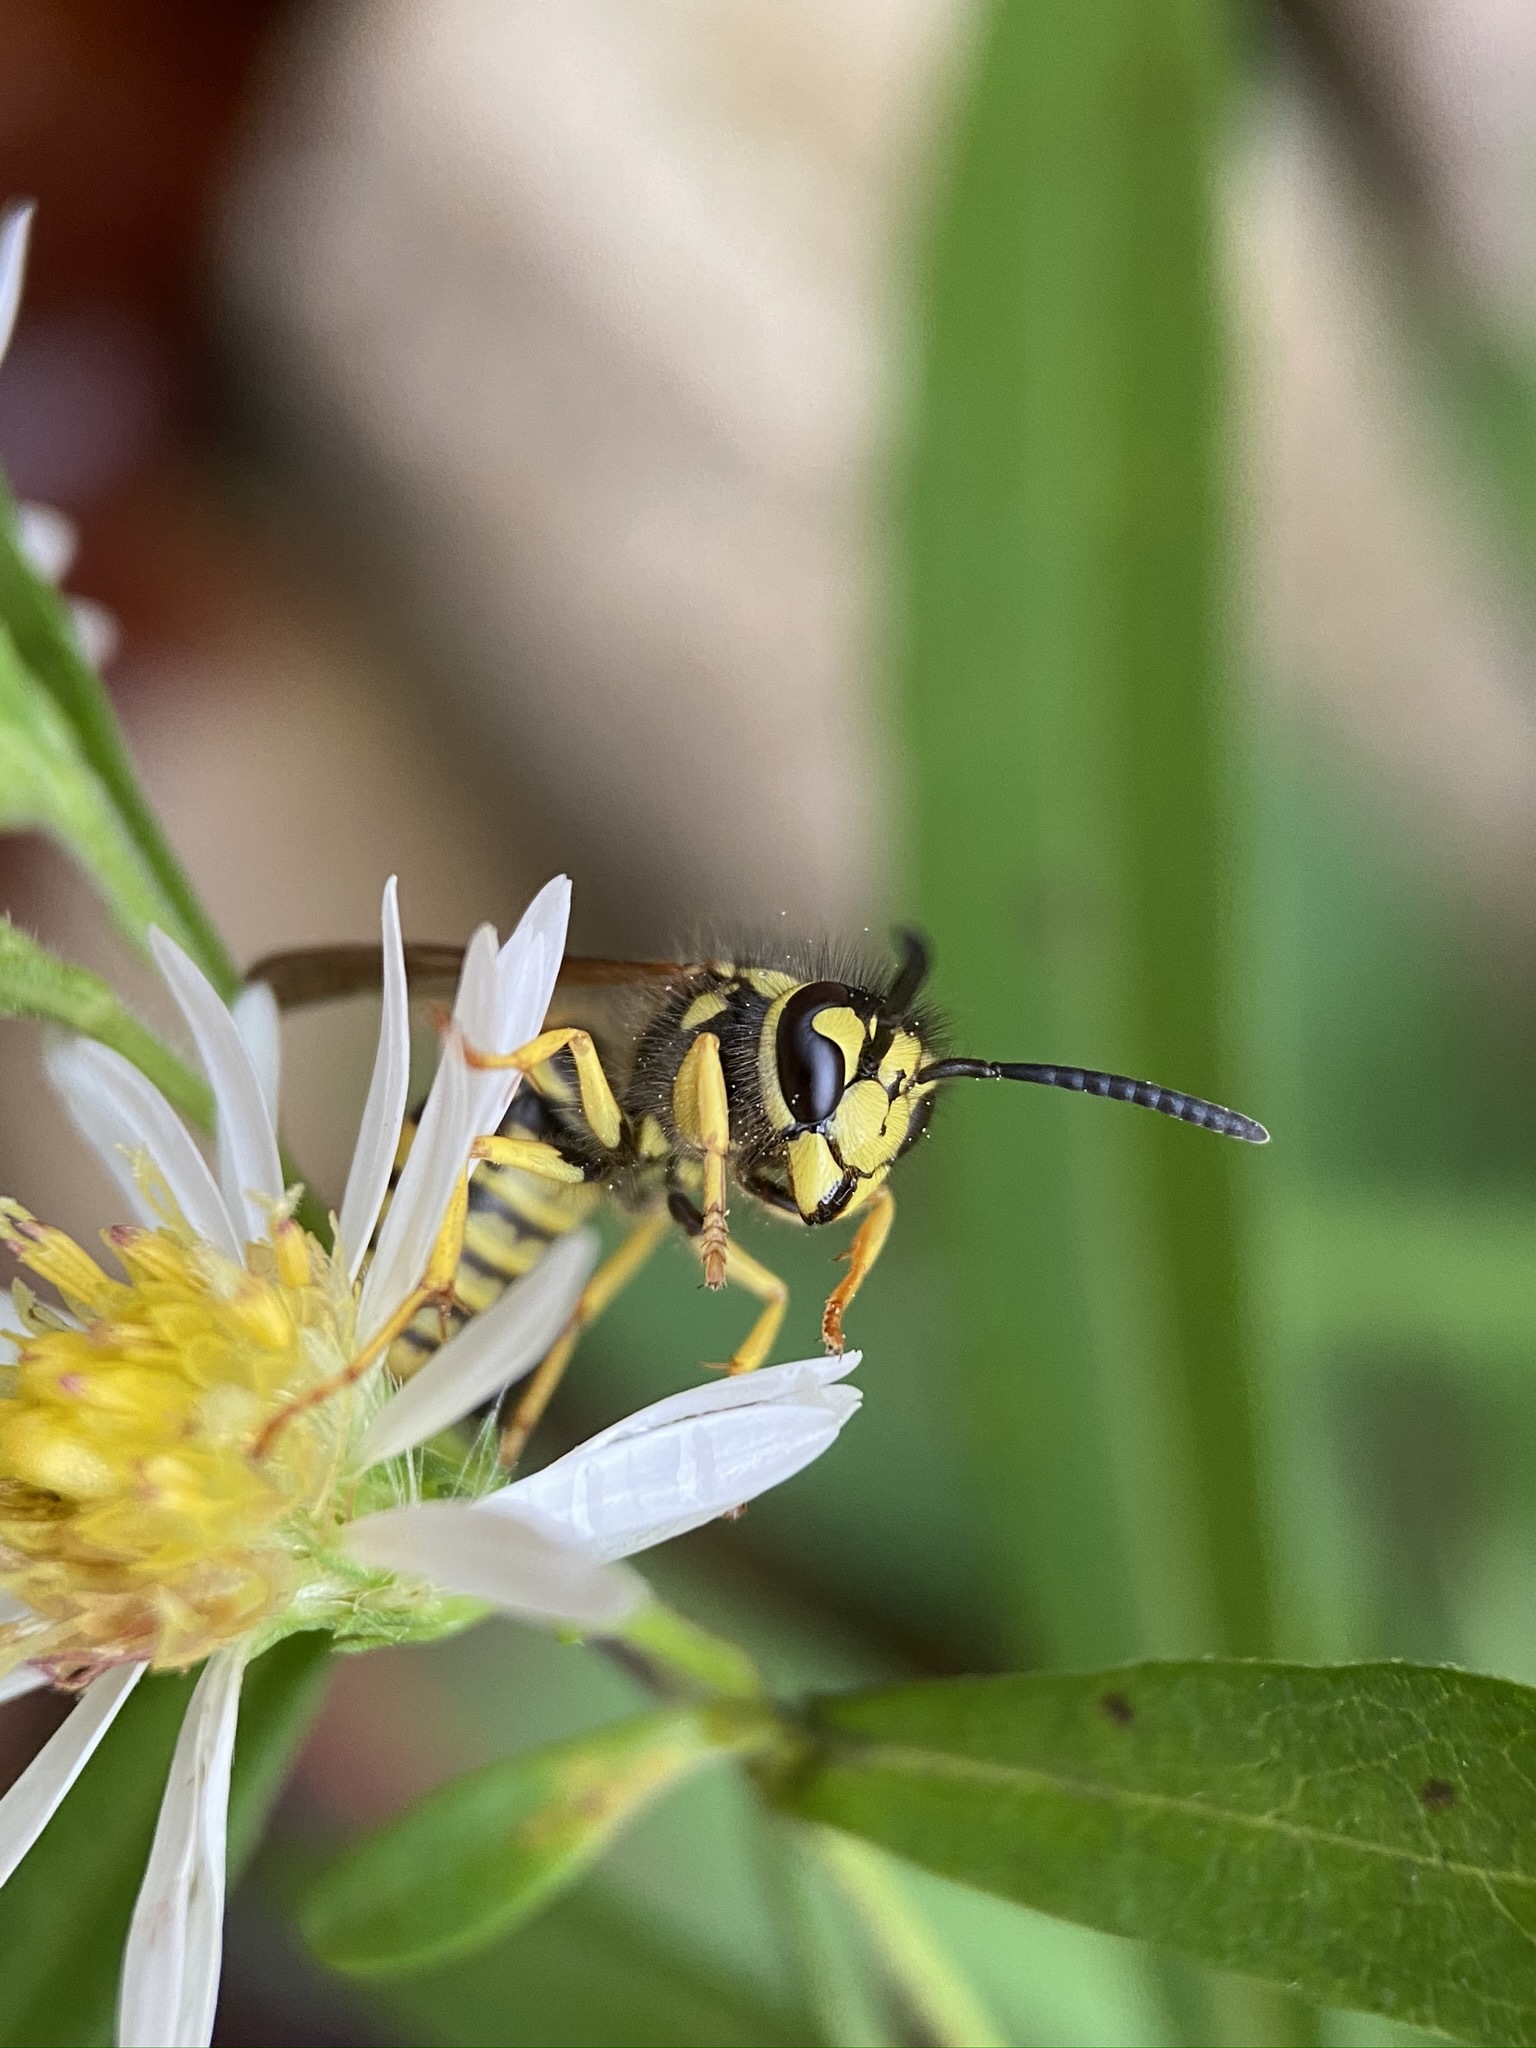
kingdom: Animalia
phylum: Arthropoda
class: Insecta
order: Hymenoptera
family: Vespidae
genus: Vespula
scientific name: Vespula
